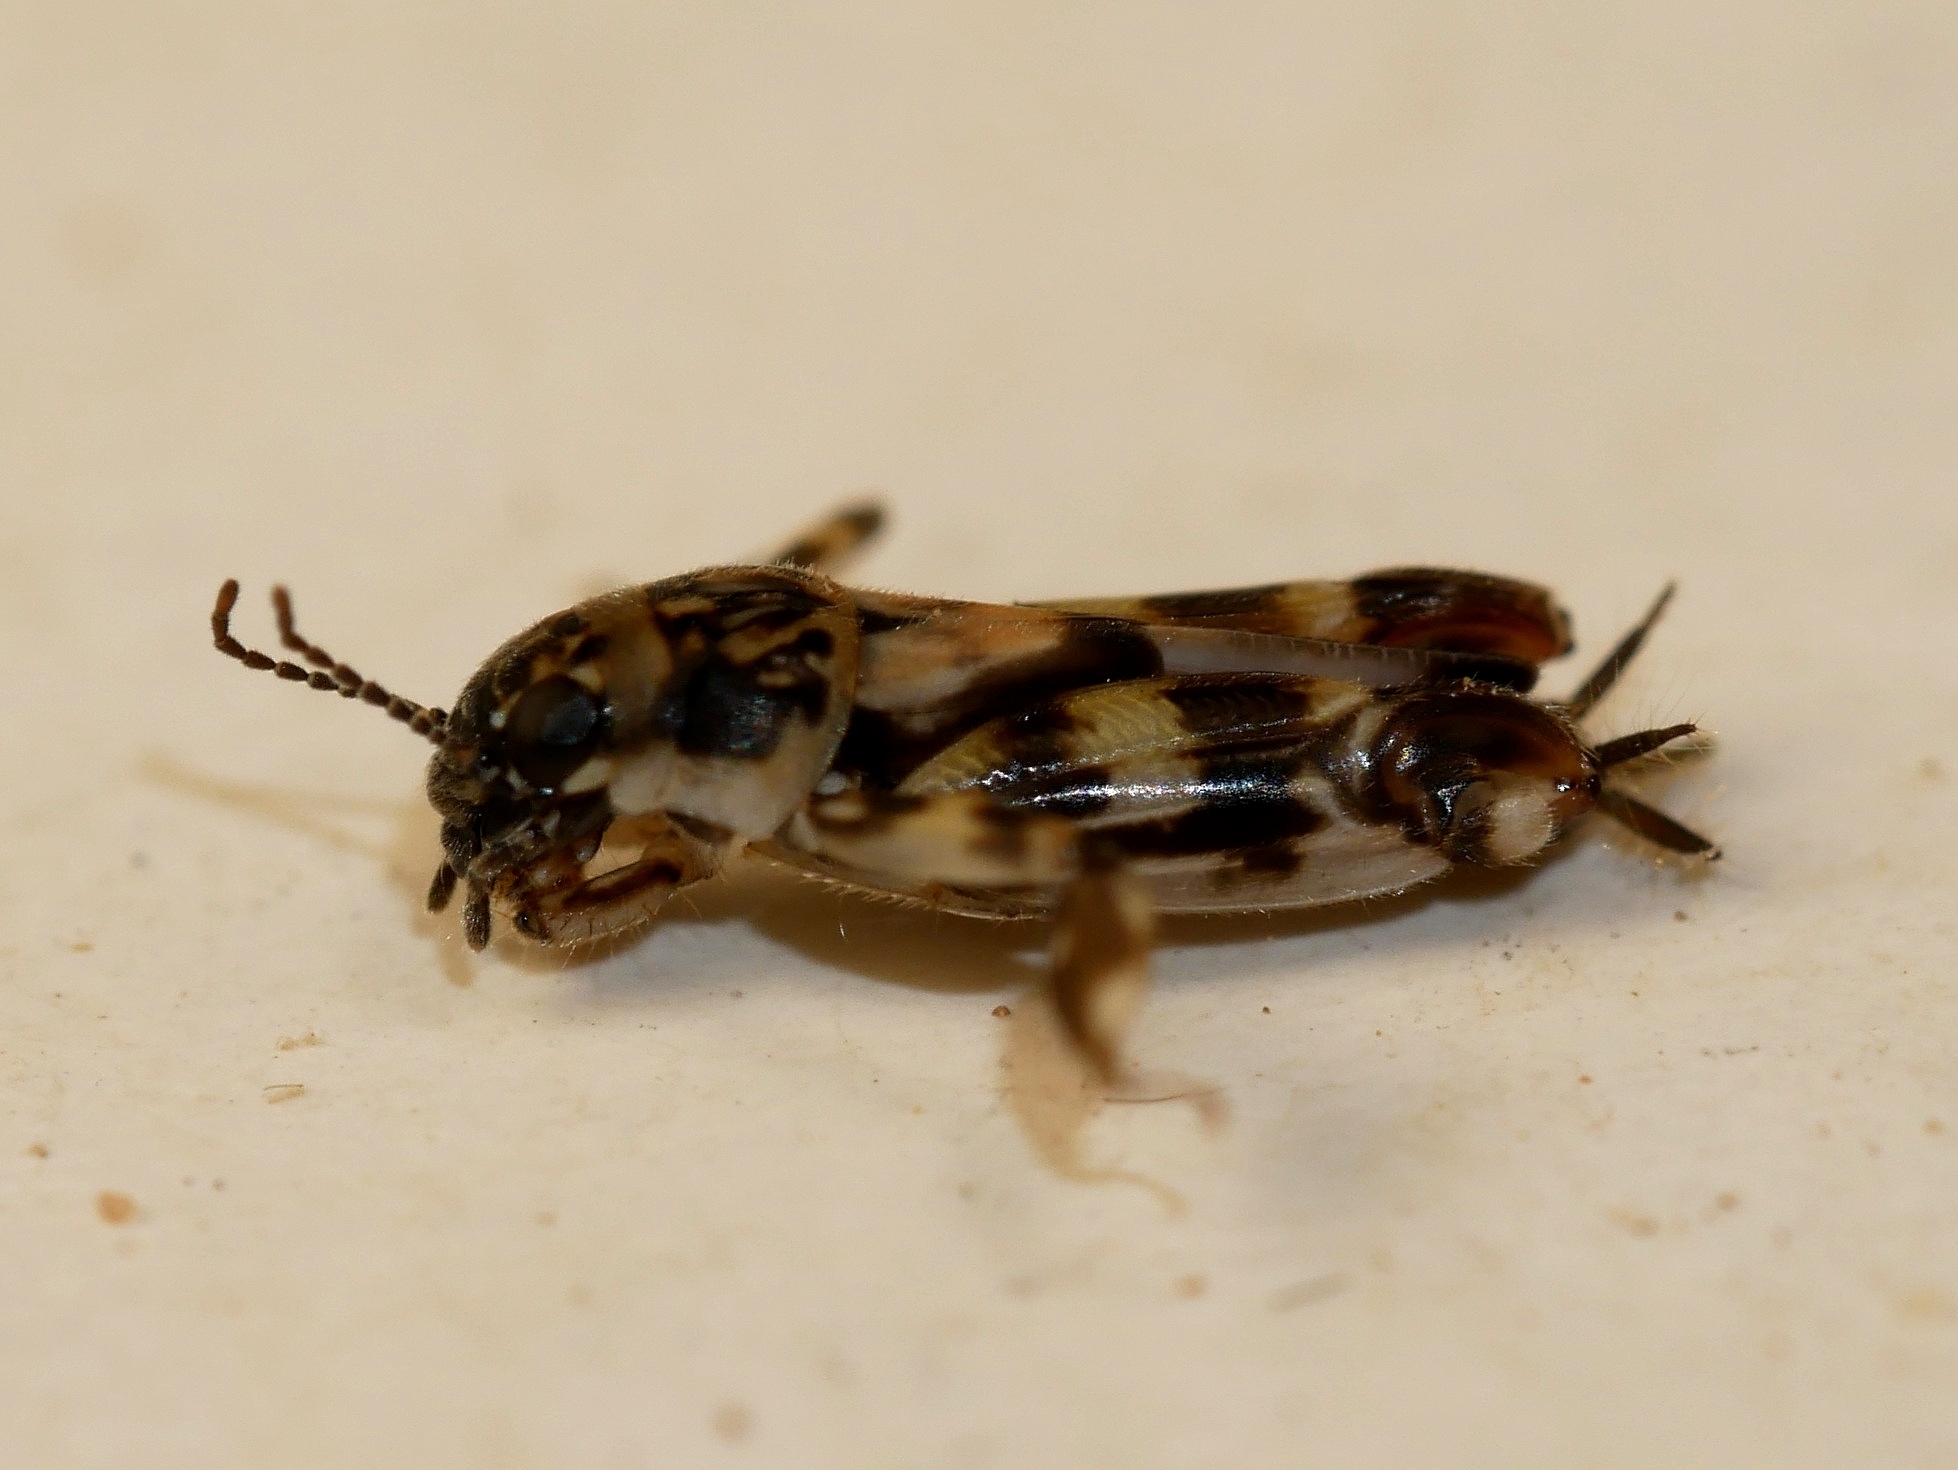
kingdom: Animalia
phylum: Arthropoda
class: Insecta
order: Orthoptera
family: Tridactylidae
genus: Ellipes
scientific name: Ellipes monticolus
